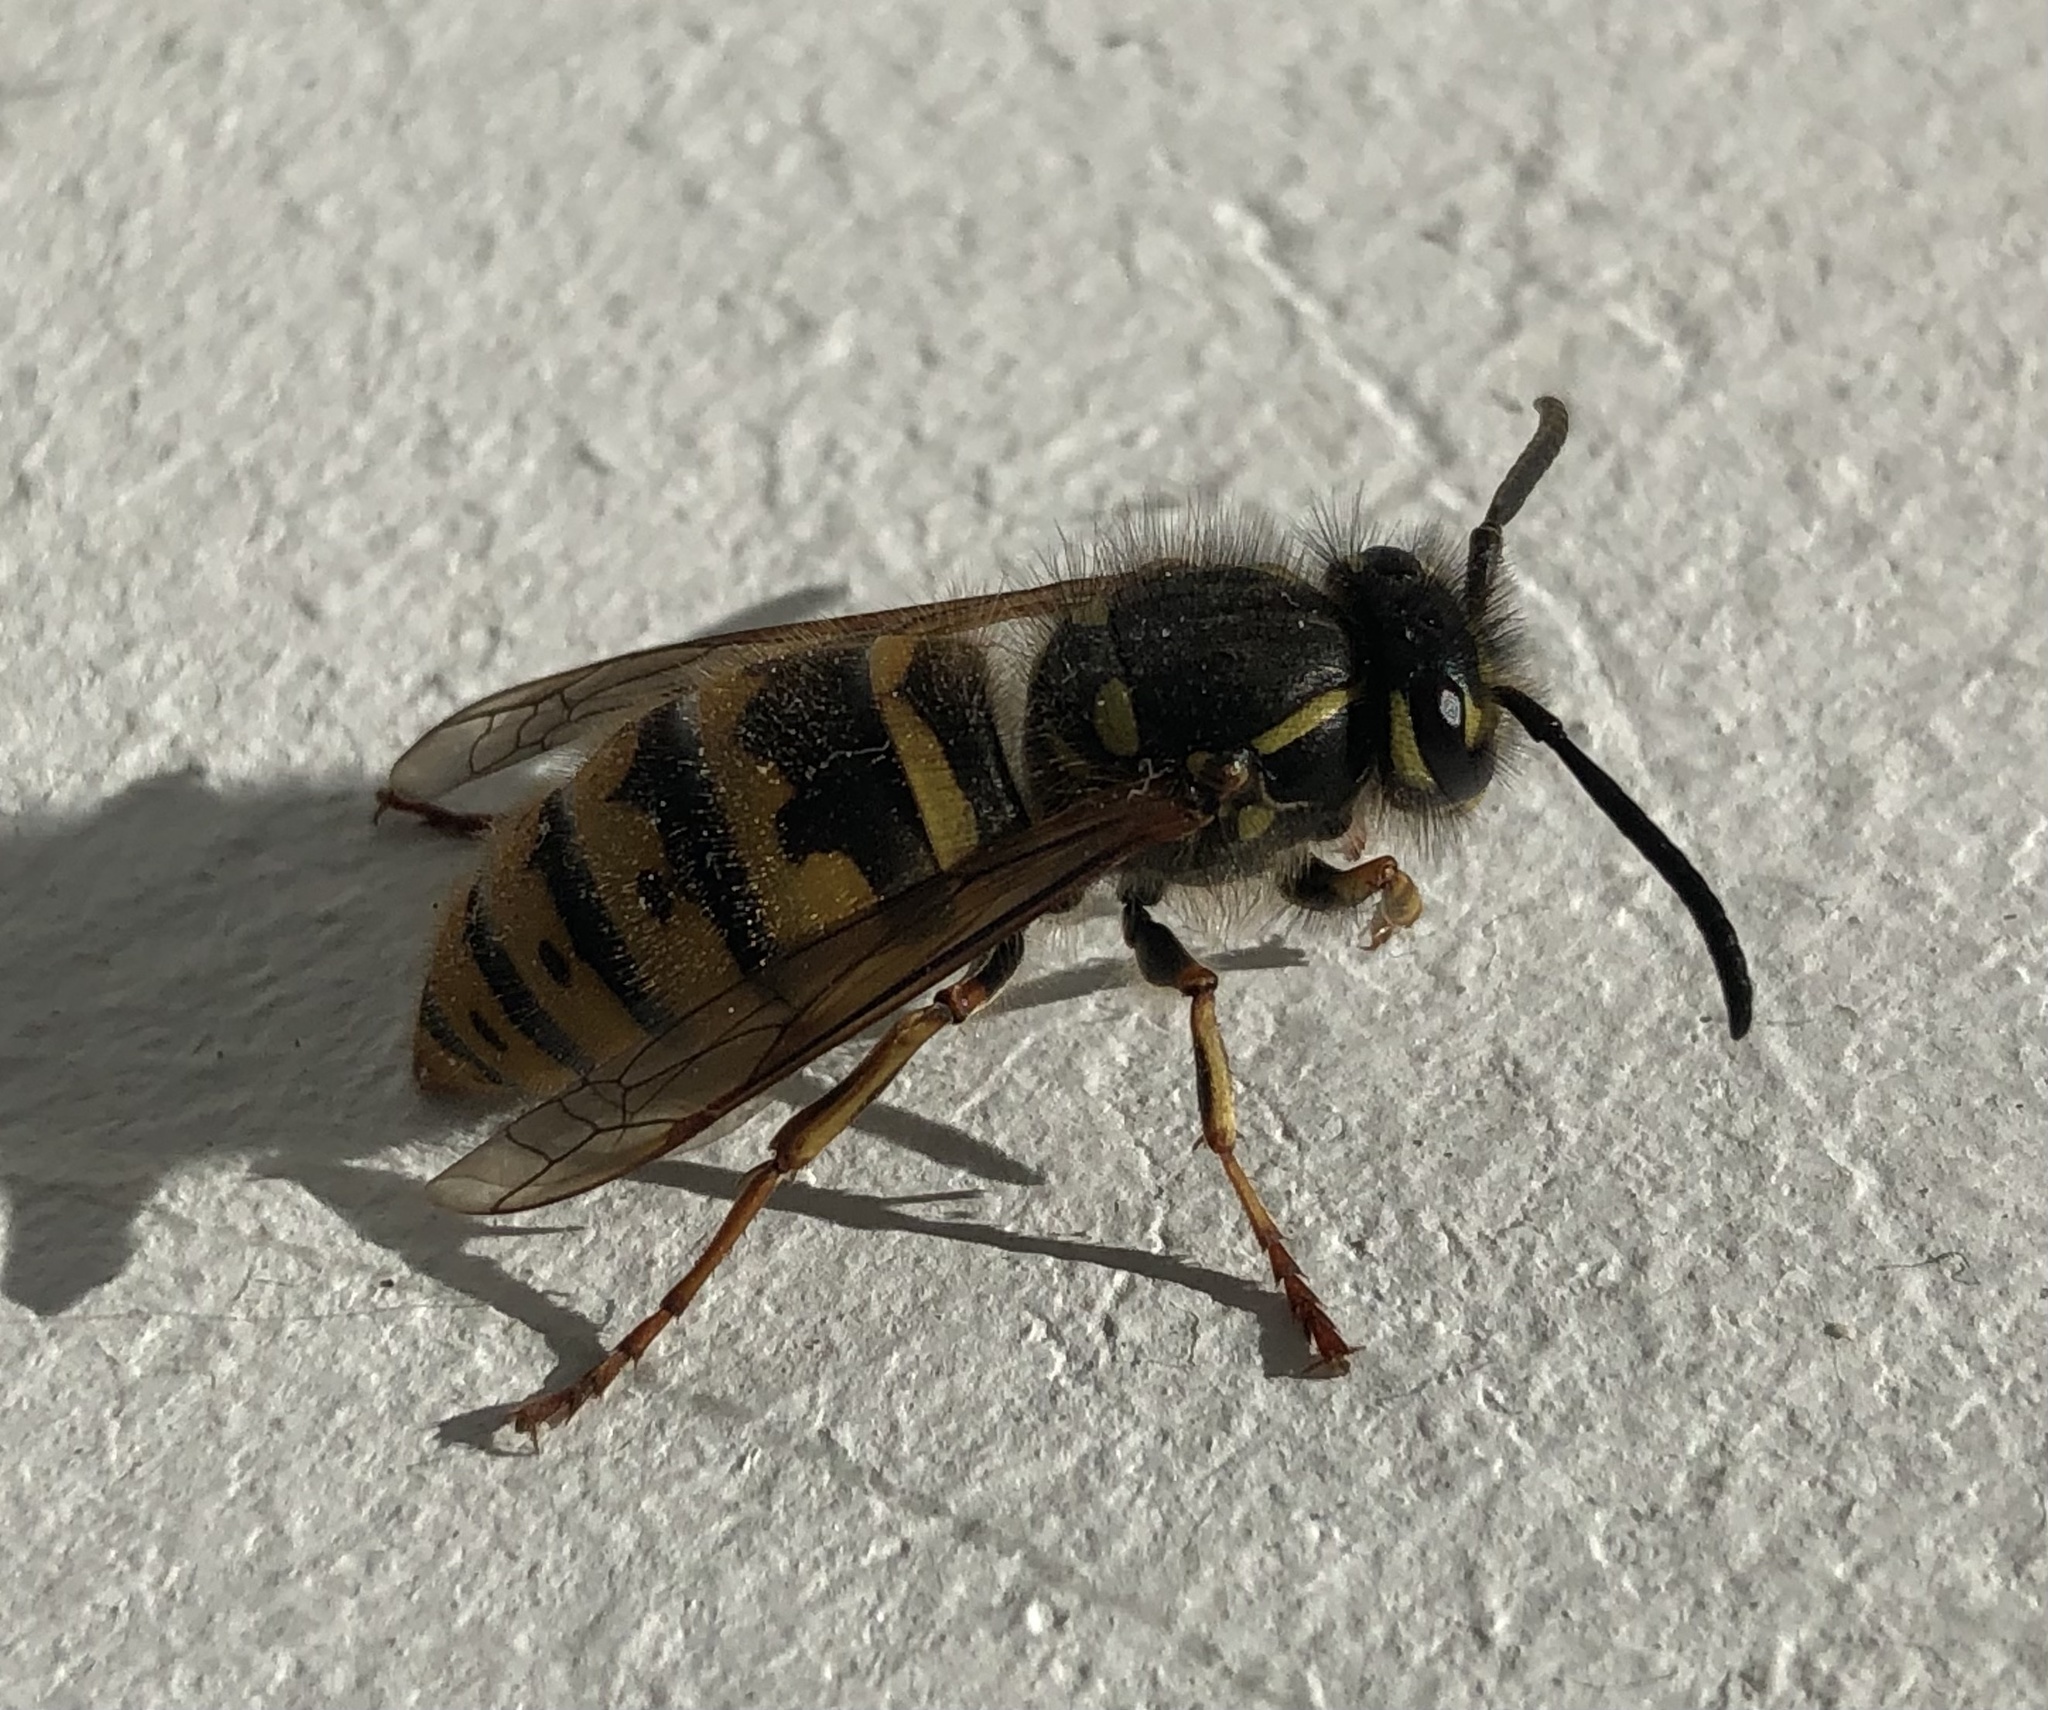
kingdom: Animalia
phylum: Arthropoda
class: Insecta
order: Hymenoptera
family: Vespidae
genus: Vespula
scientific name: Vespula vulgaris
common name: Common wasp
